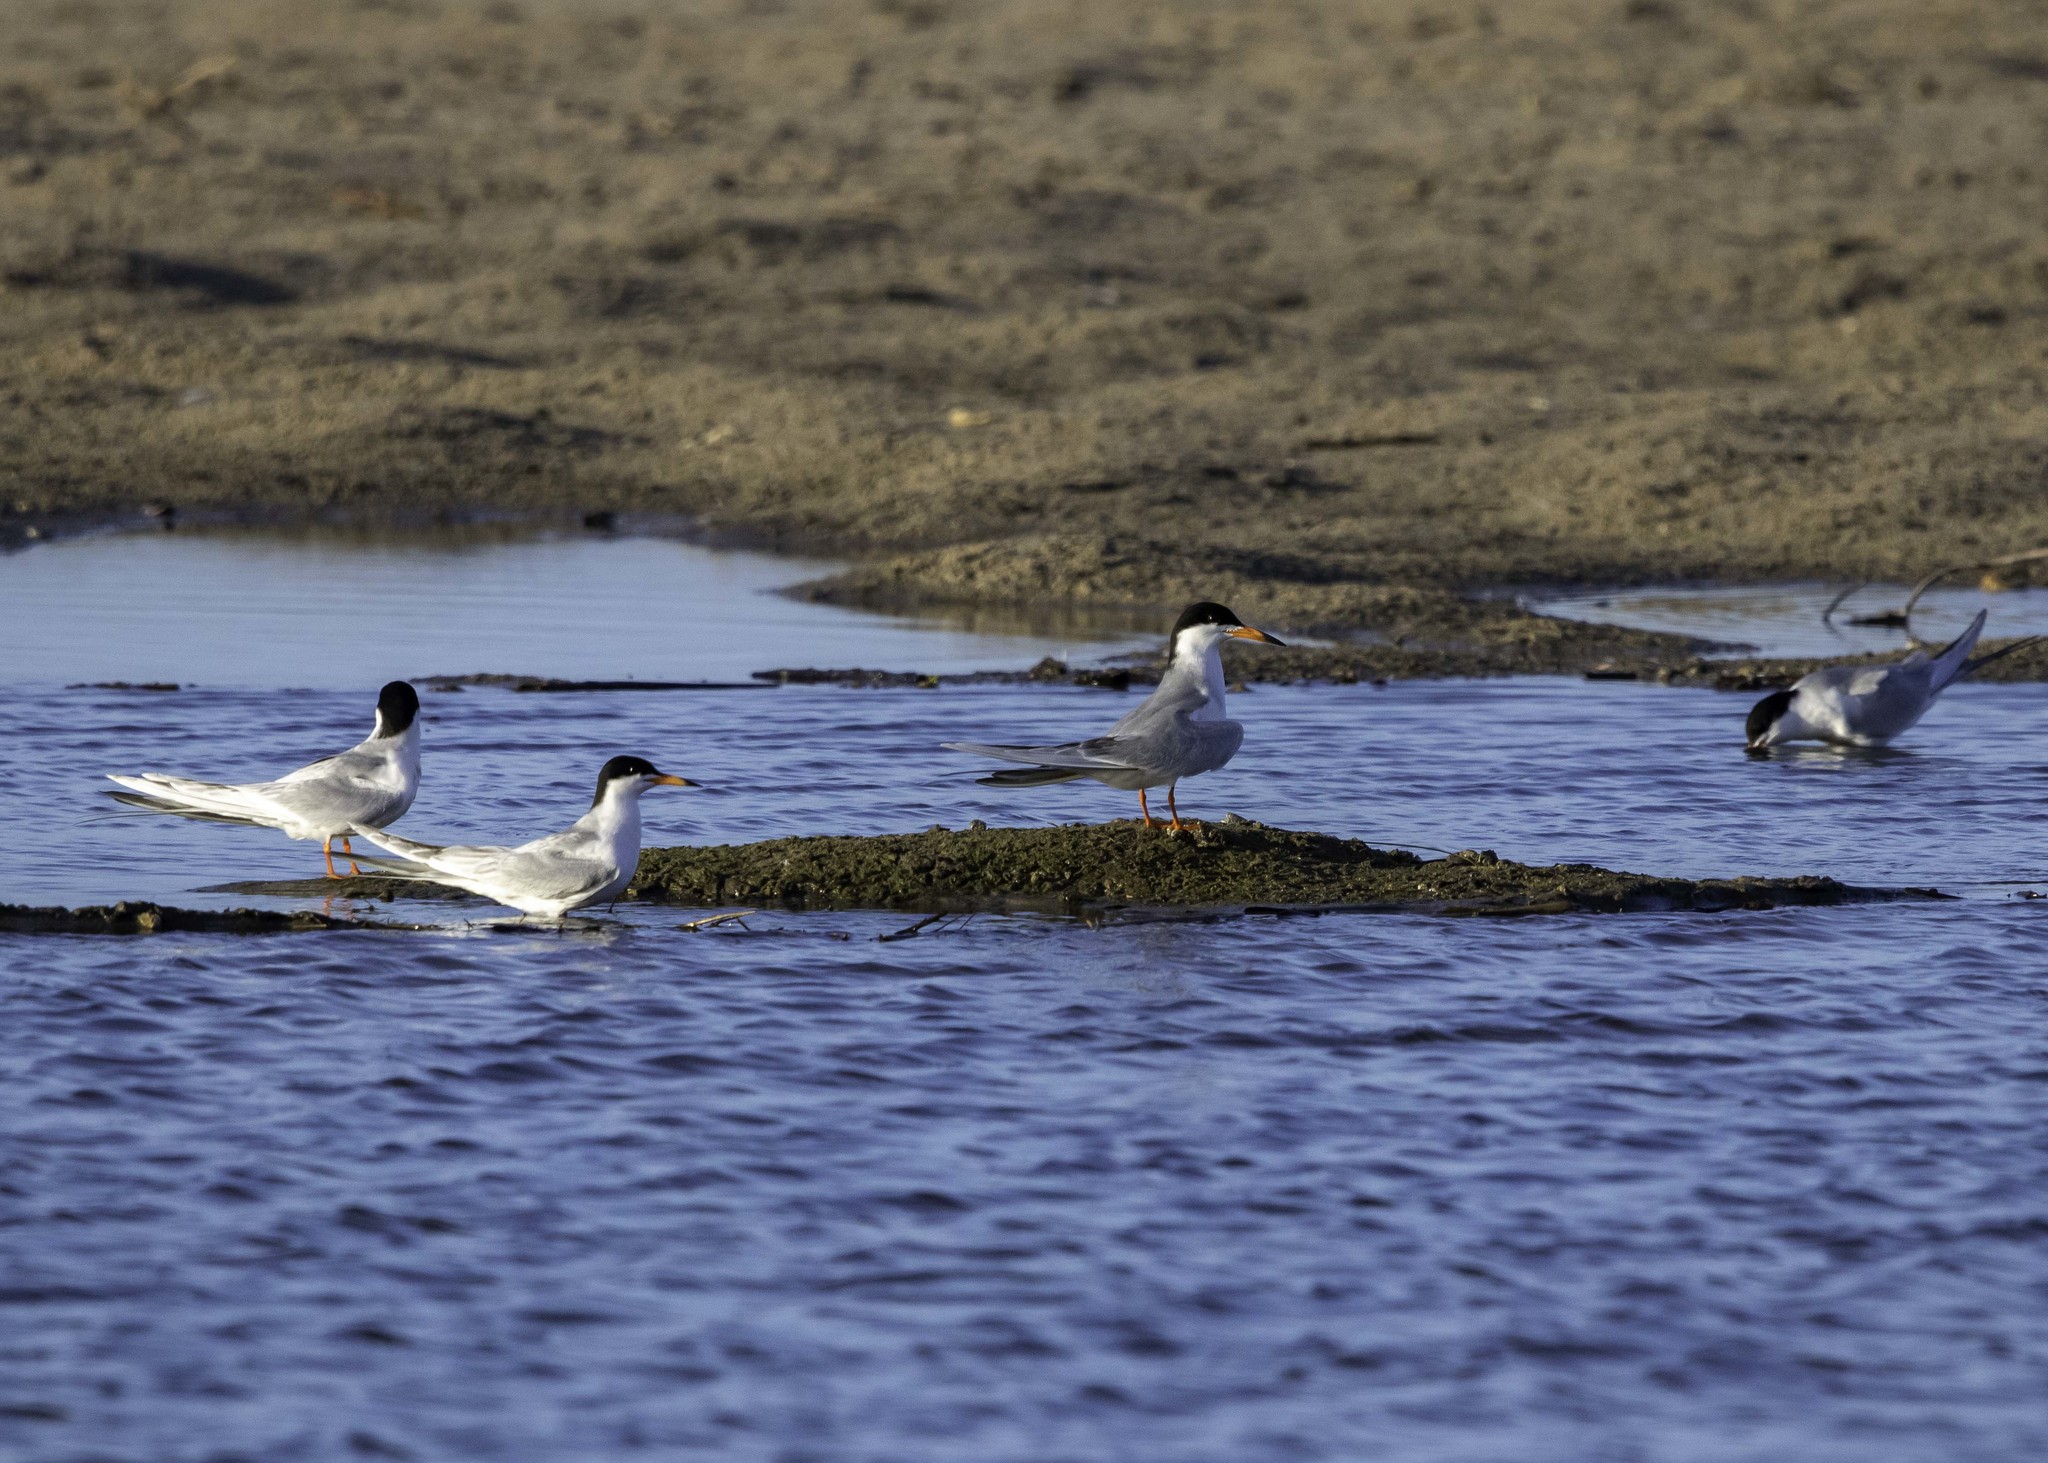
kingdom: Animalia
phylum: Chordata
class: Aves
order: Charadriiformes
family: Laridae
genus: Sterna
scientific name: Sterna forsteri
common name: Forster's tern
